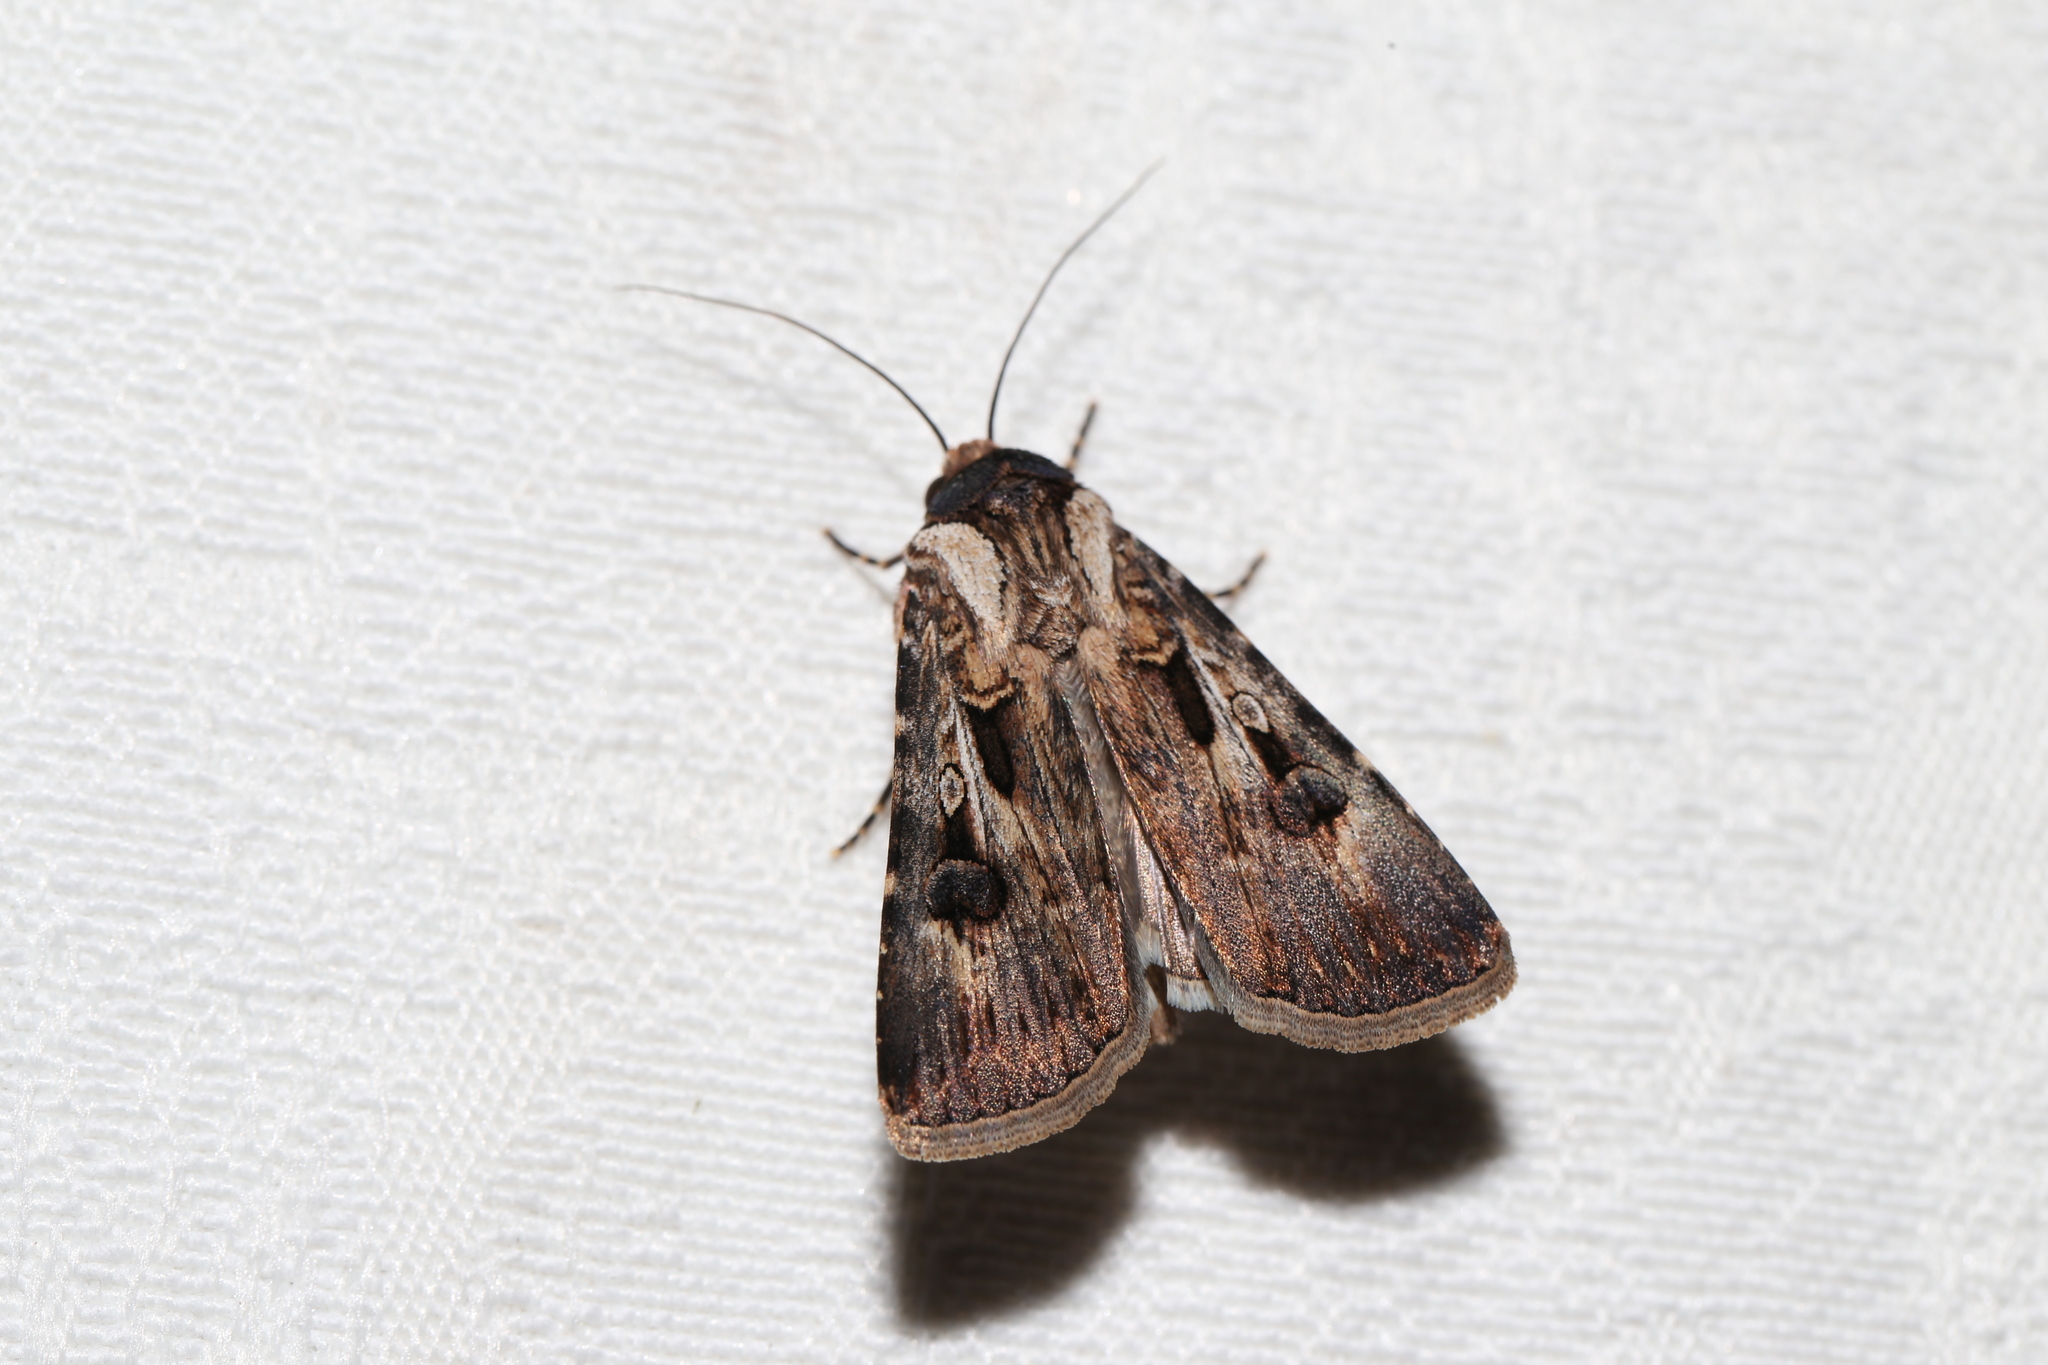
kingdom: Animalia
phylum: Arthropoda
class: Insecta
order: Lepidoptera
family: Noctuidae
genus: Agrotis
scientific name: Agrotis munda
